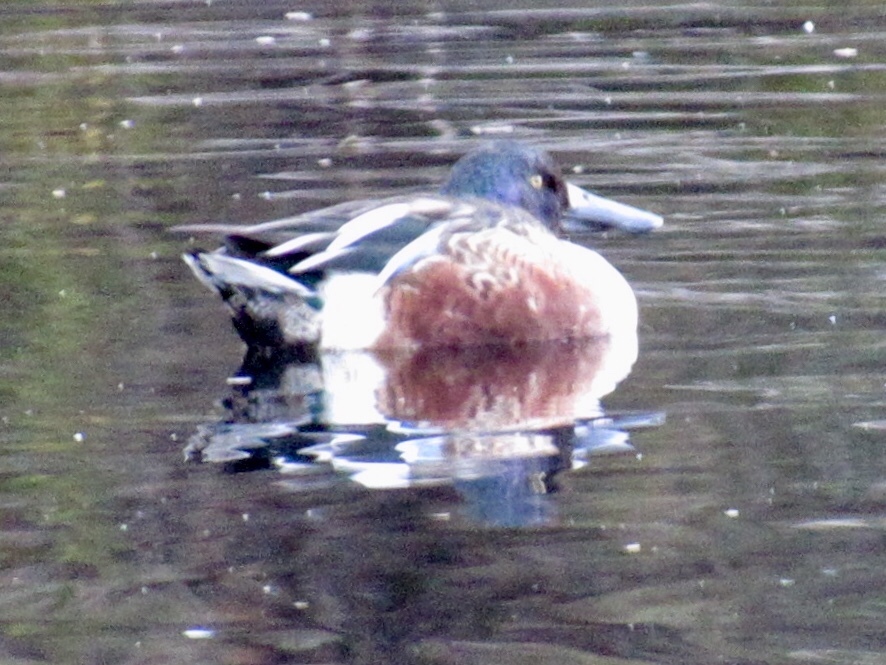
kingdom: Animalia
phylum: Chordata
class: Aves
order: Anseriformes
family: Anatidae
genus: Spatula
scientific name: Spatula clypeata
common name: Northern shoveler
